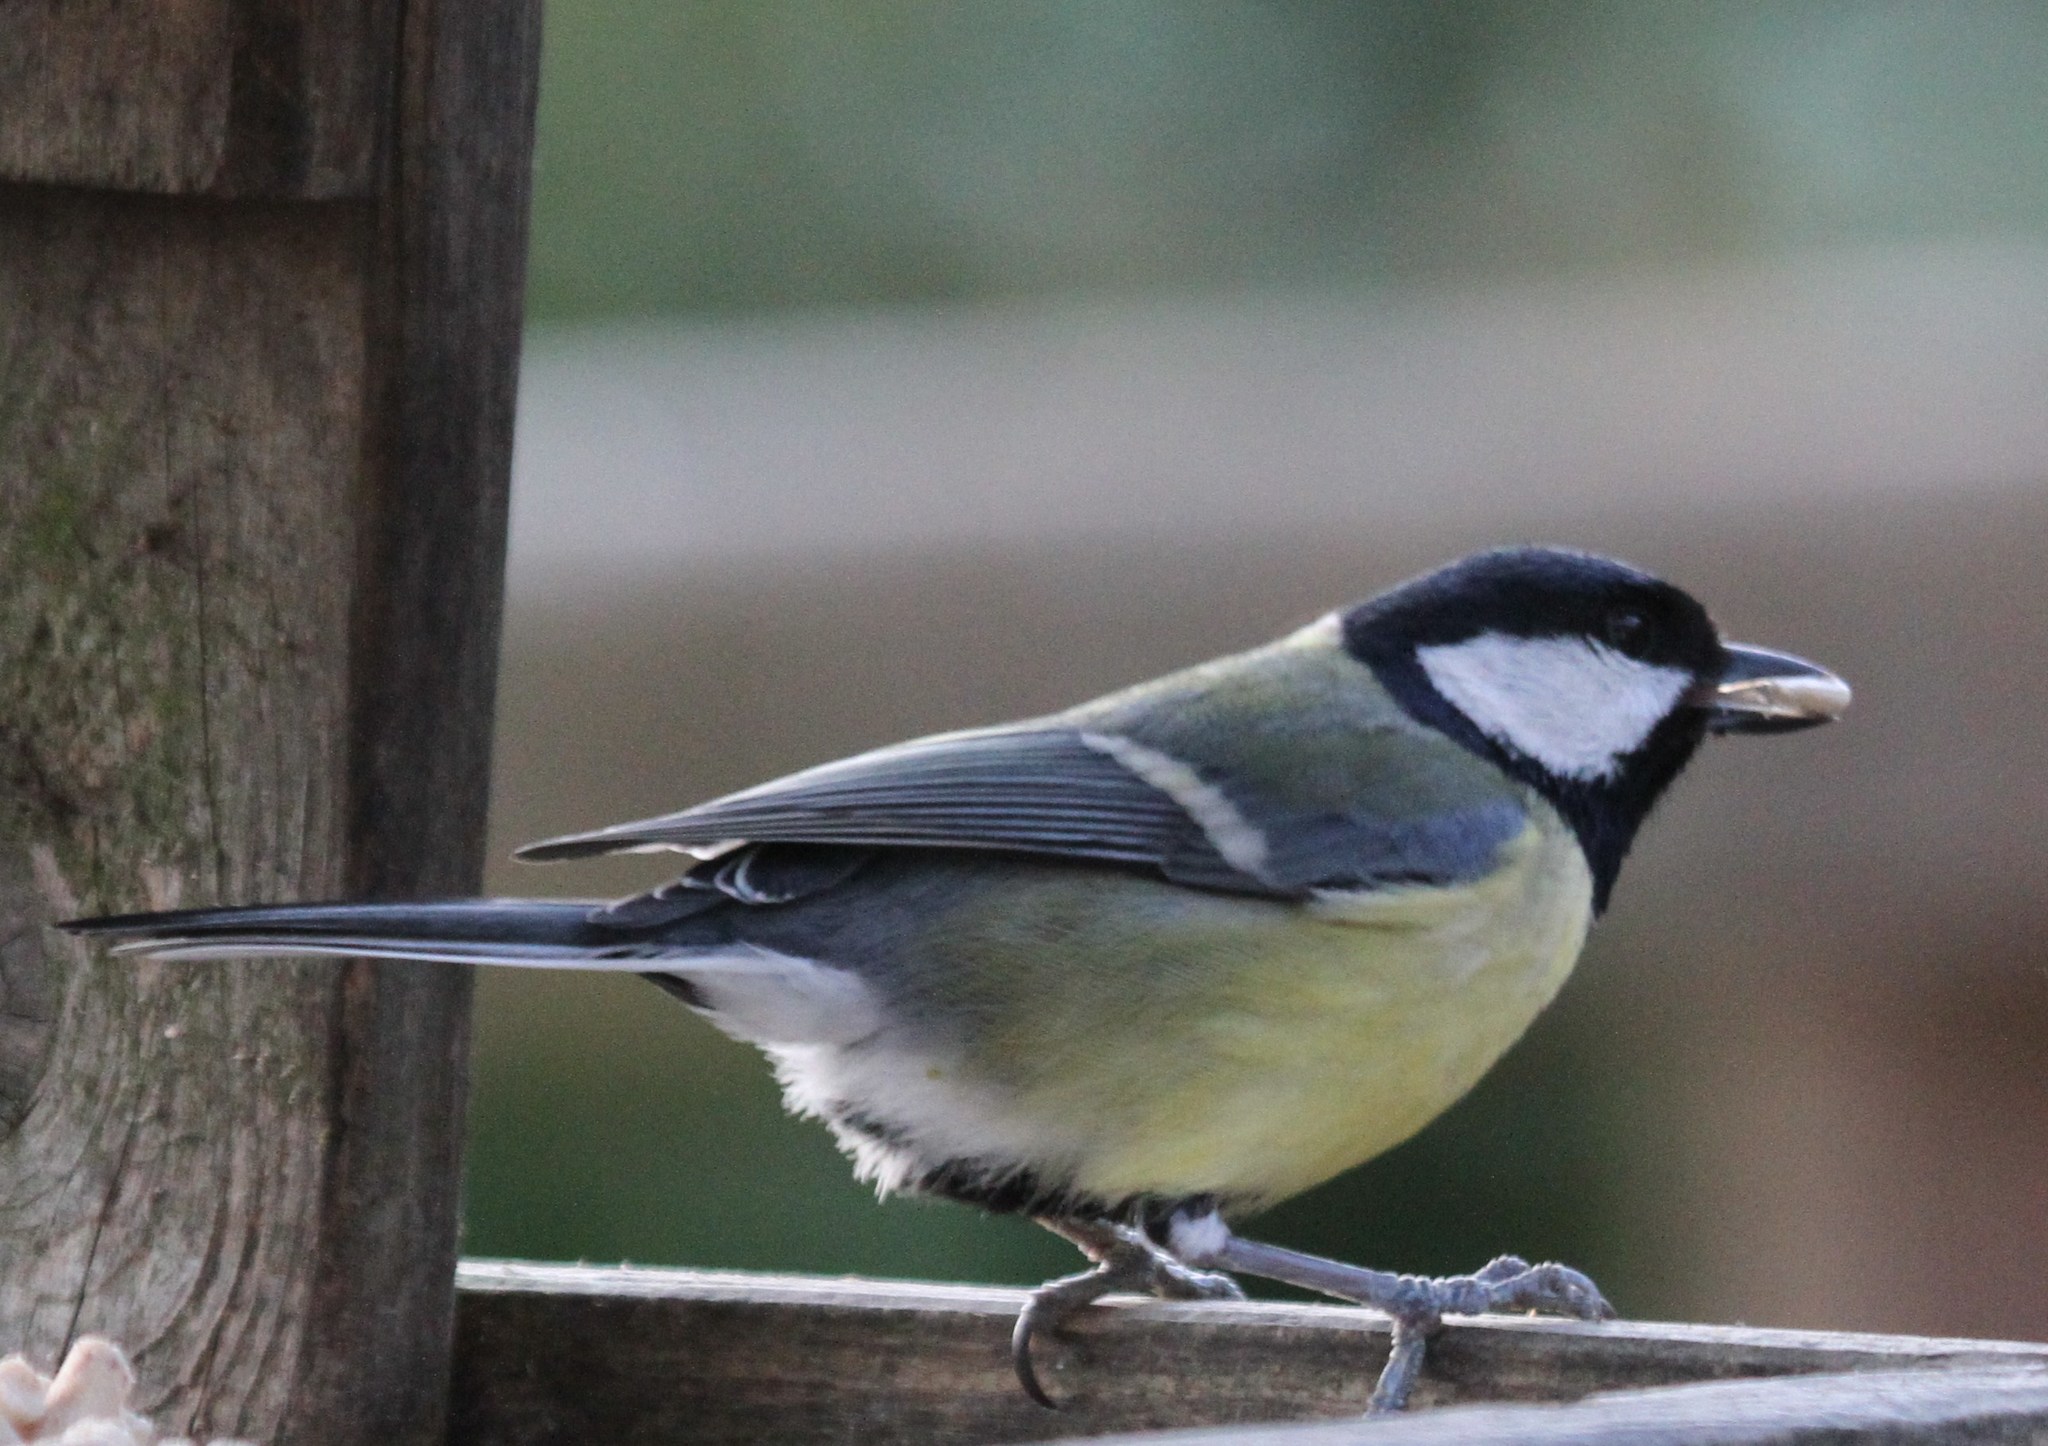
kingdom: Animalia
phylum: Chordata
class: Aves
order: Passeriformes
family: Paridae
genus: Parus
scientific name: Parus major
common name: Great tit
